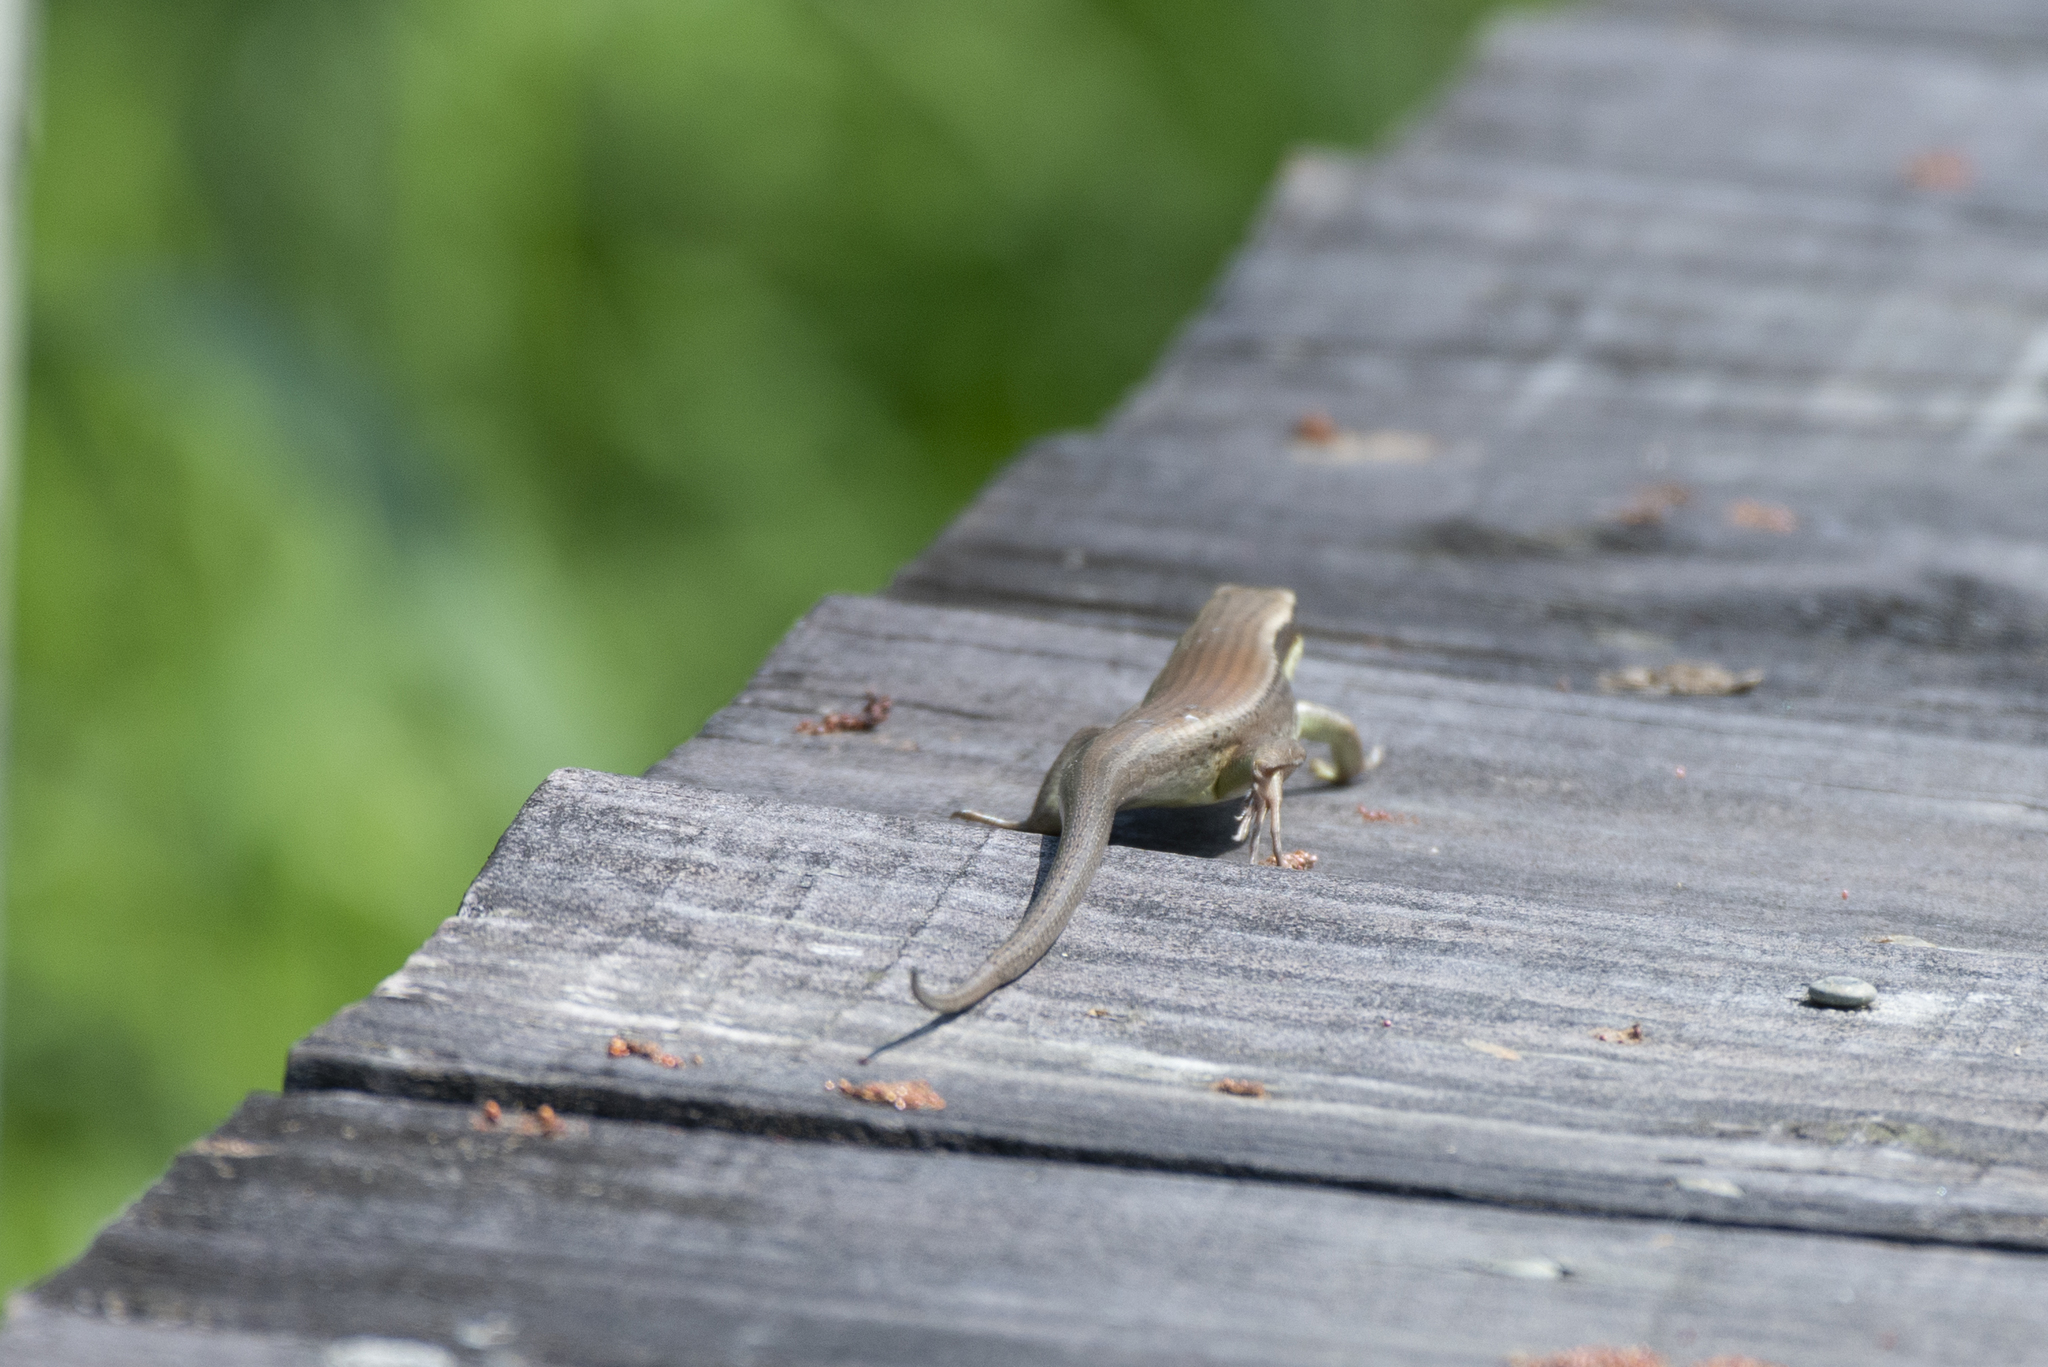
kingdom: Animalia
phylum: Chordata
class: Squamata
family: Scincidae
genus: Eutropis
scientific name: Eutropis longicaudata
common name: Long-tailed sun skink
